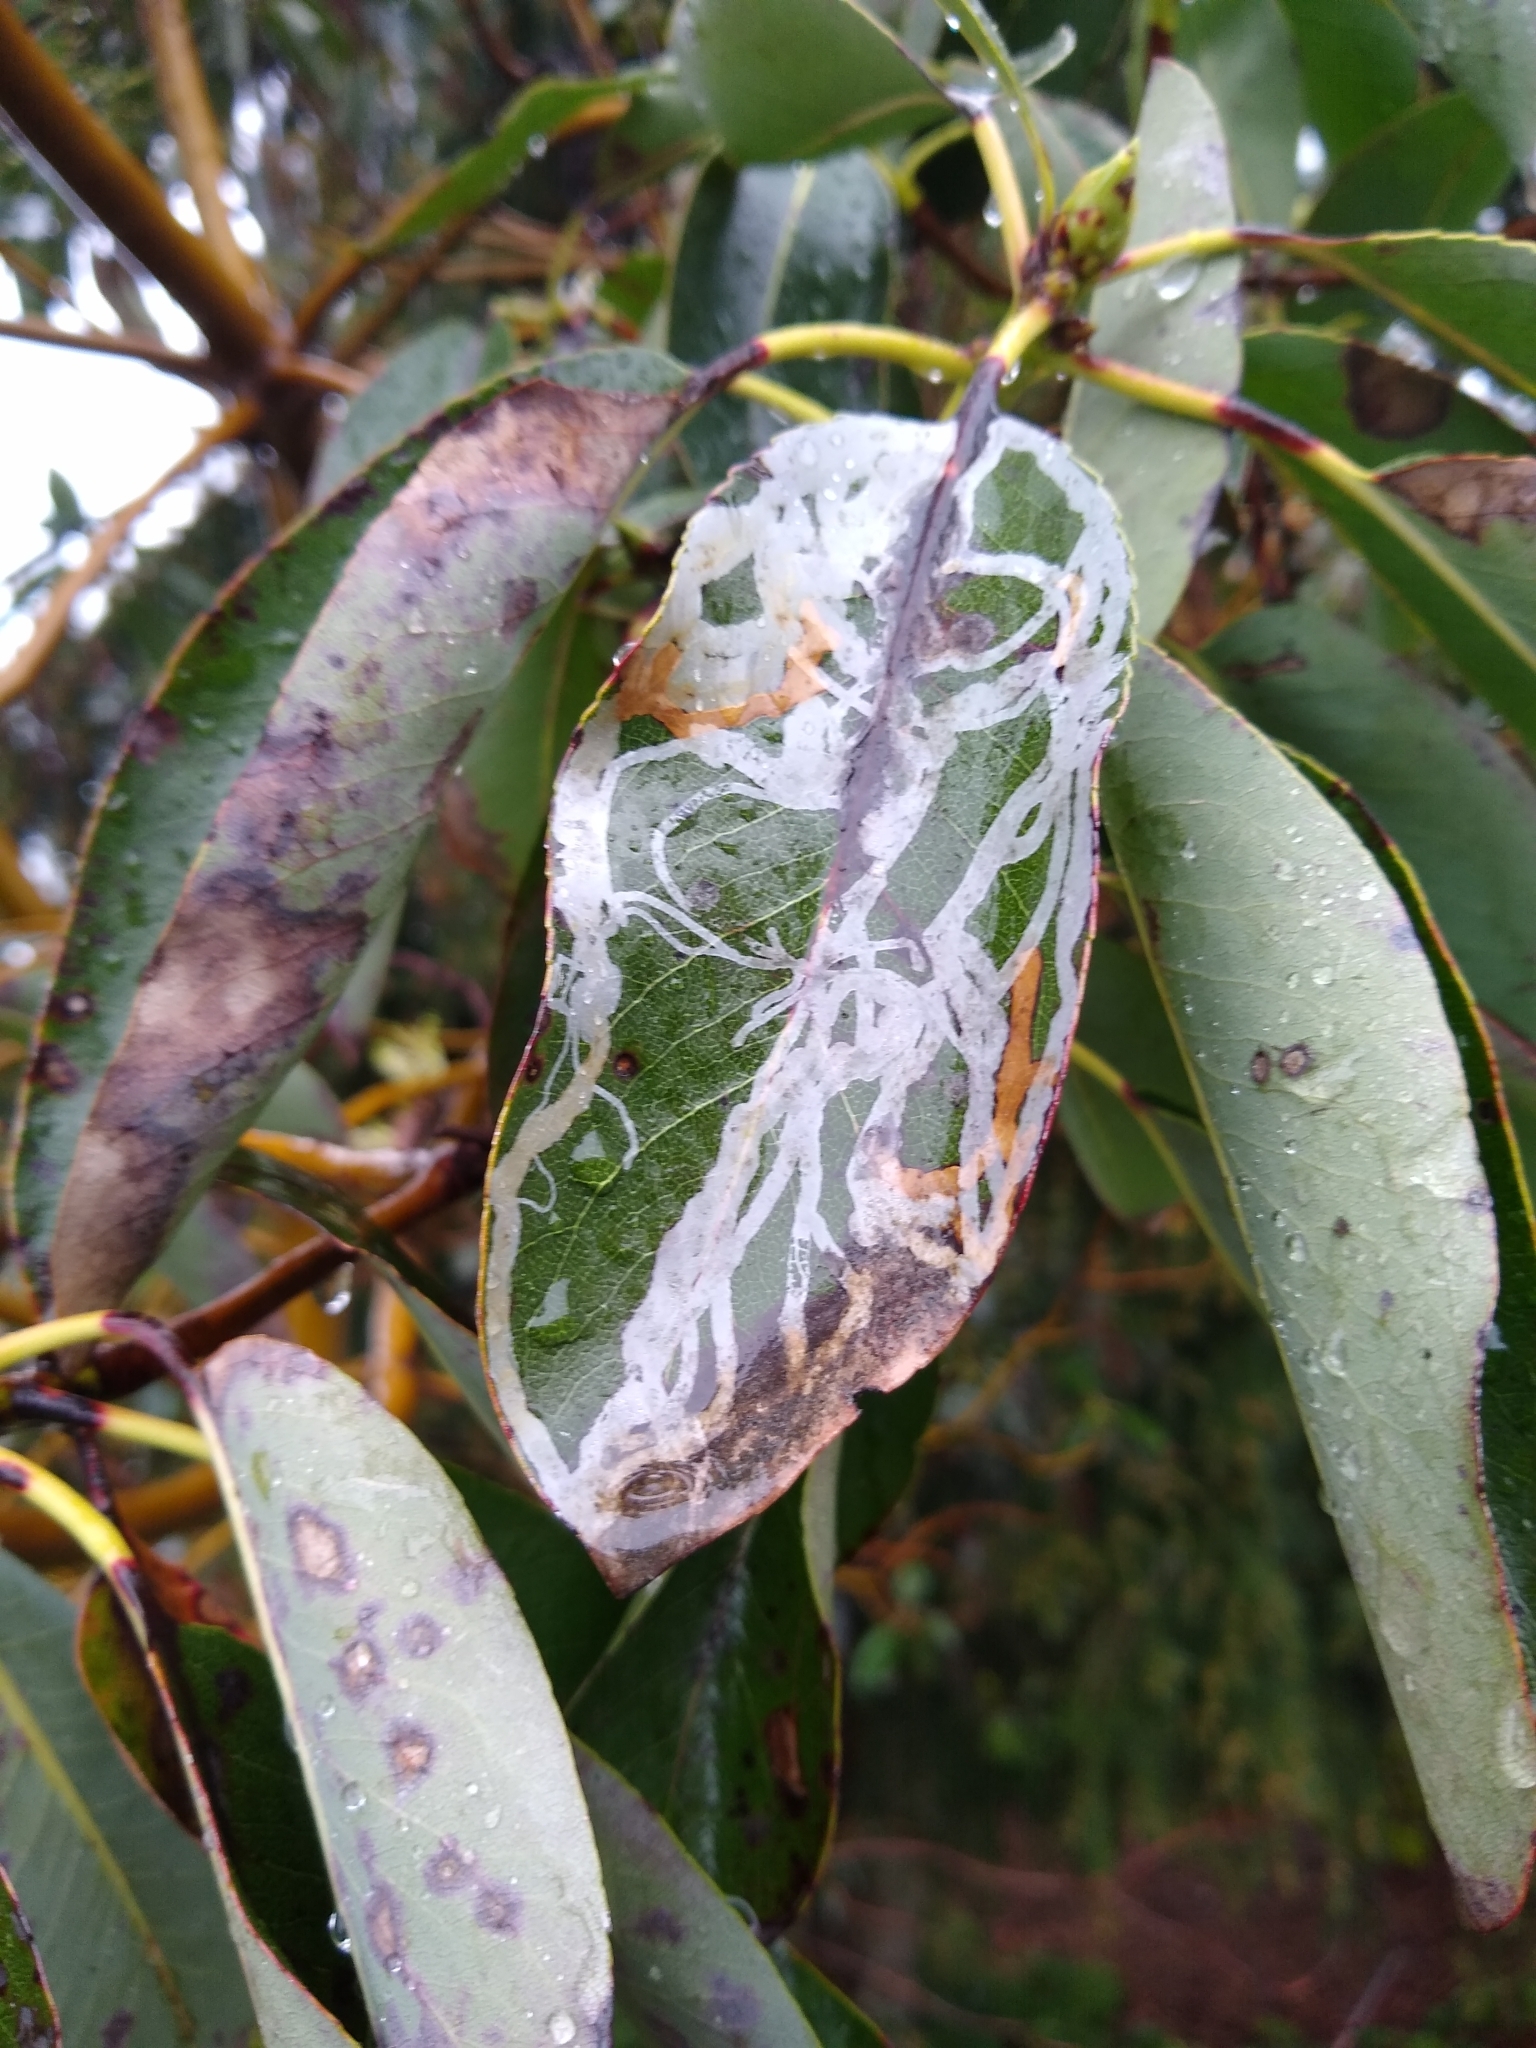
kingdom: Animalia
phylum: Arthropoda
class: Insecta
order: Lepidoptera
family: Gracillariidae
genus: Marmara
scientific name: Marmara arbutiella
